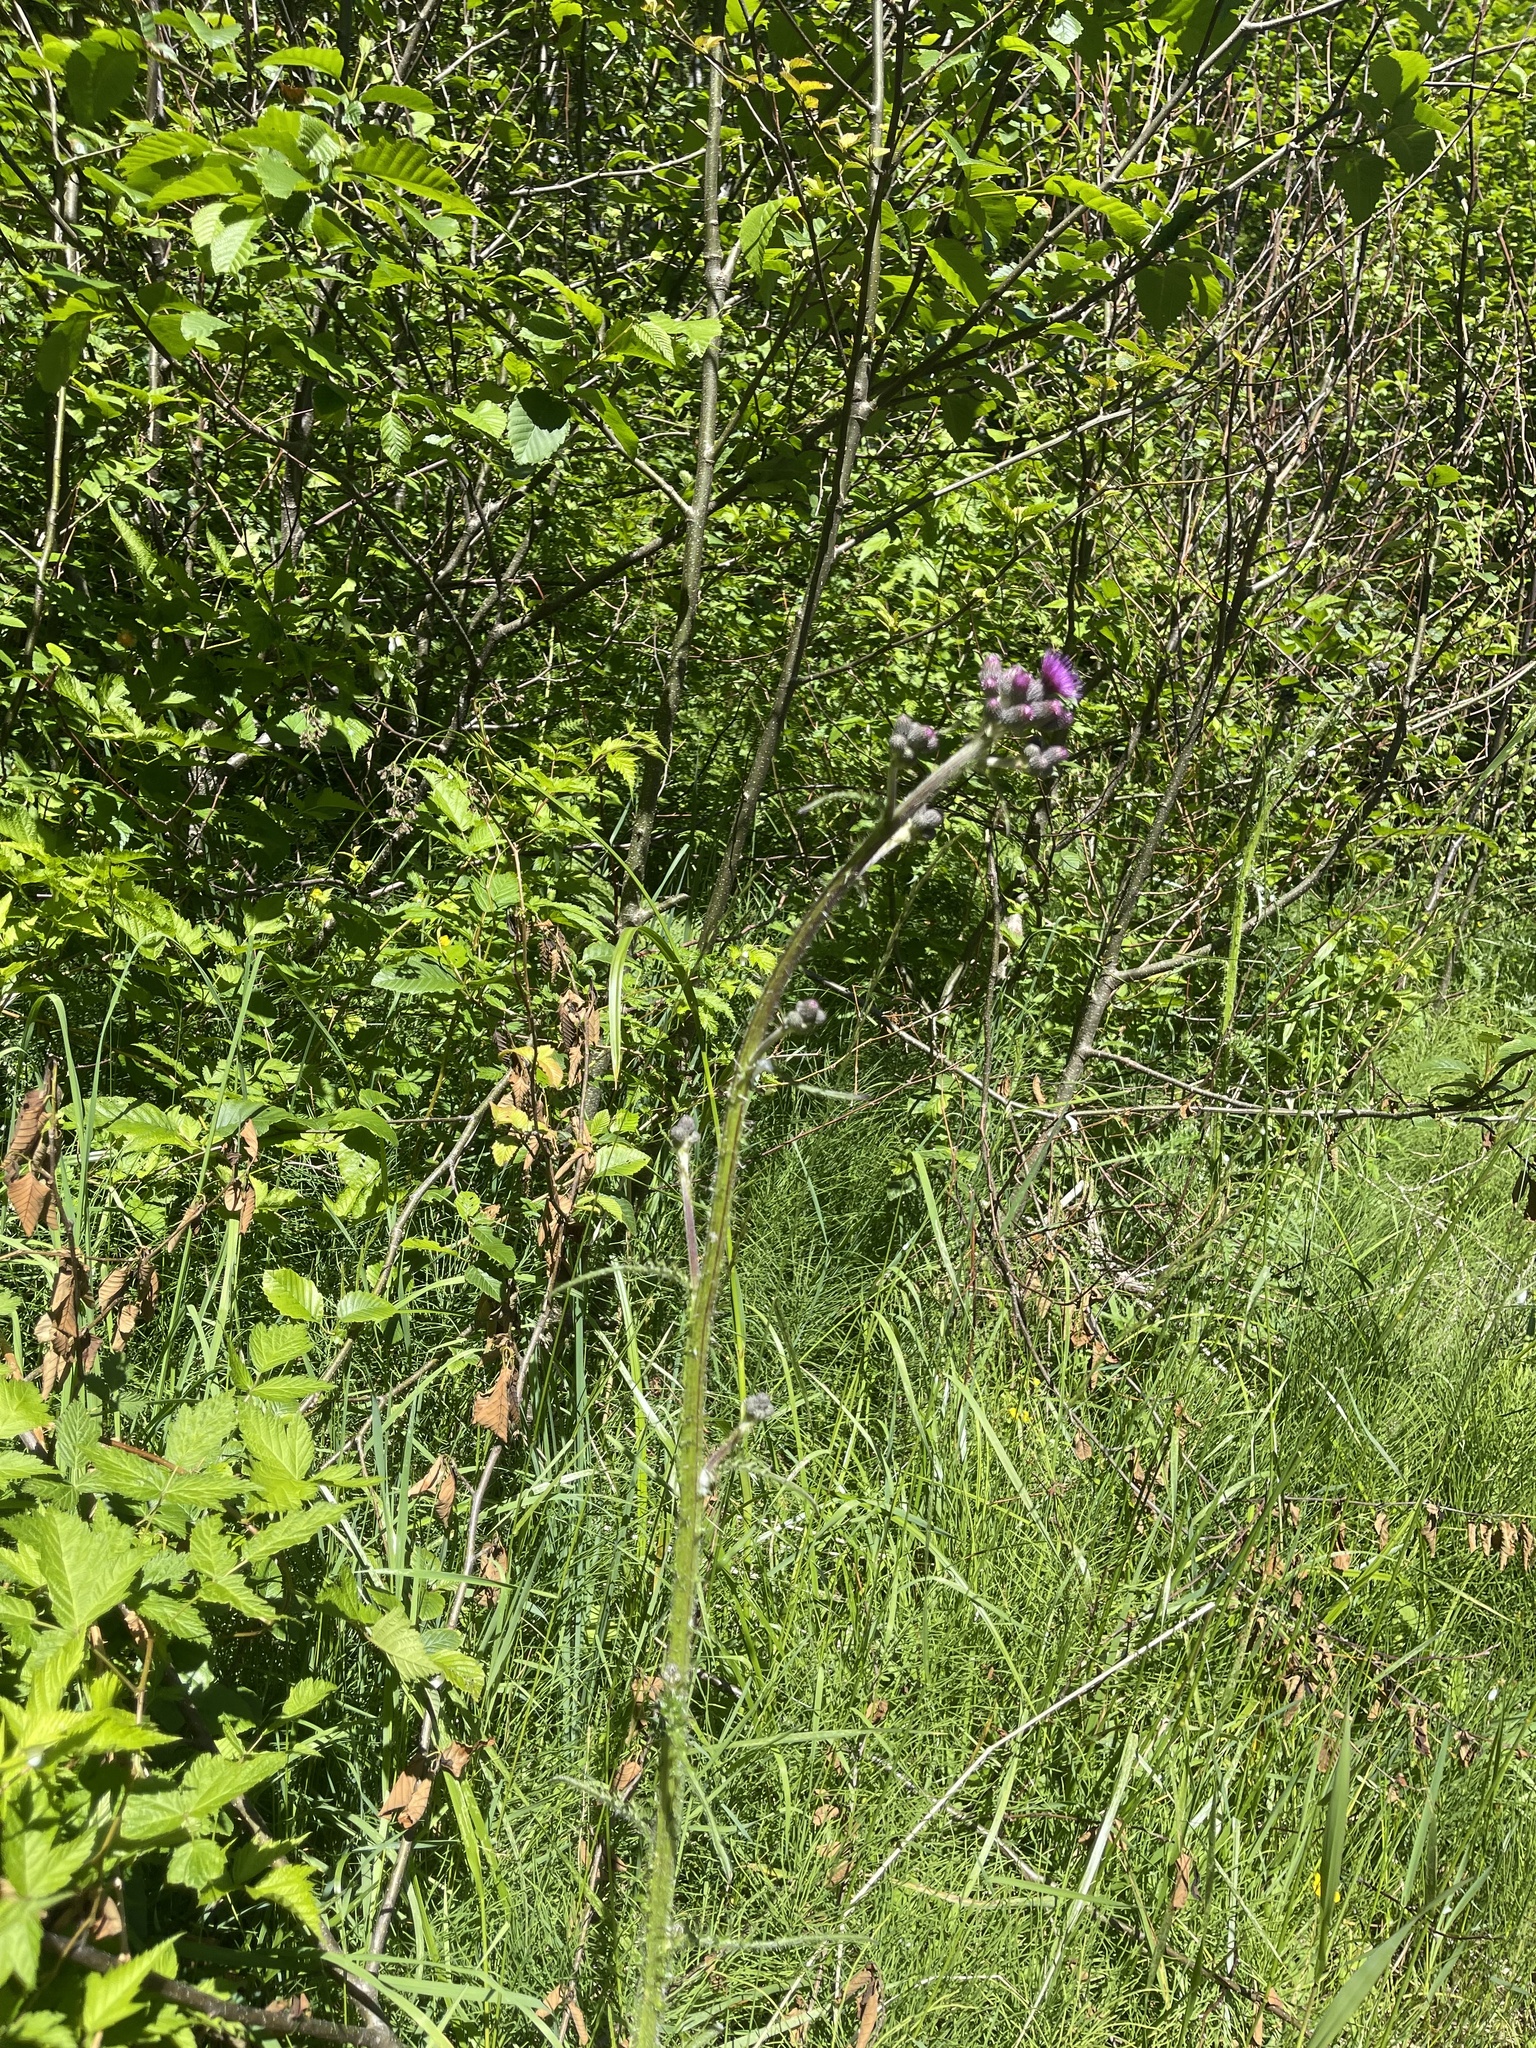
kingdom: Plantae
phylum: Tracheophyta
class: Magnoliopsida
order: Asterales
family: Asteraceae
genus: Cirsium
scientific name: Cirsium palustre
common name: Marsh thistle
